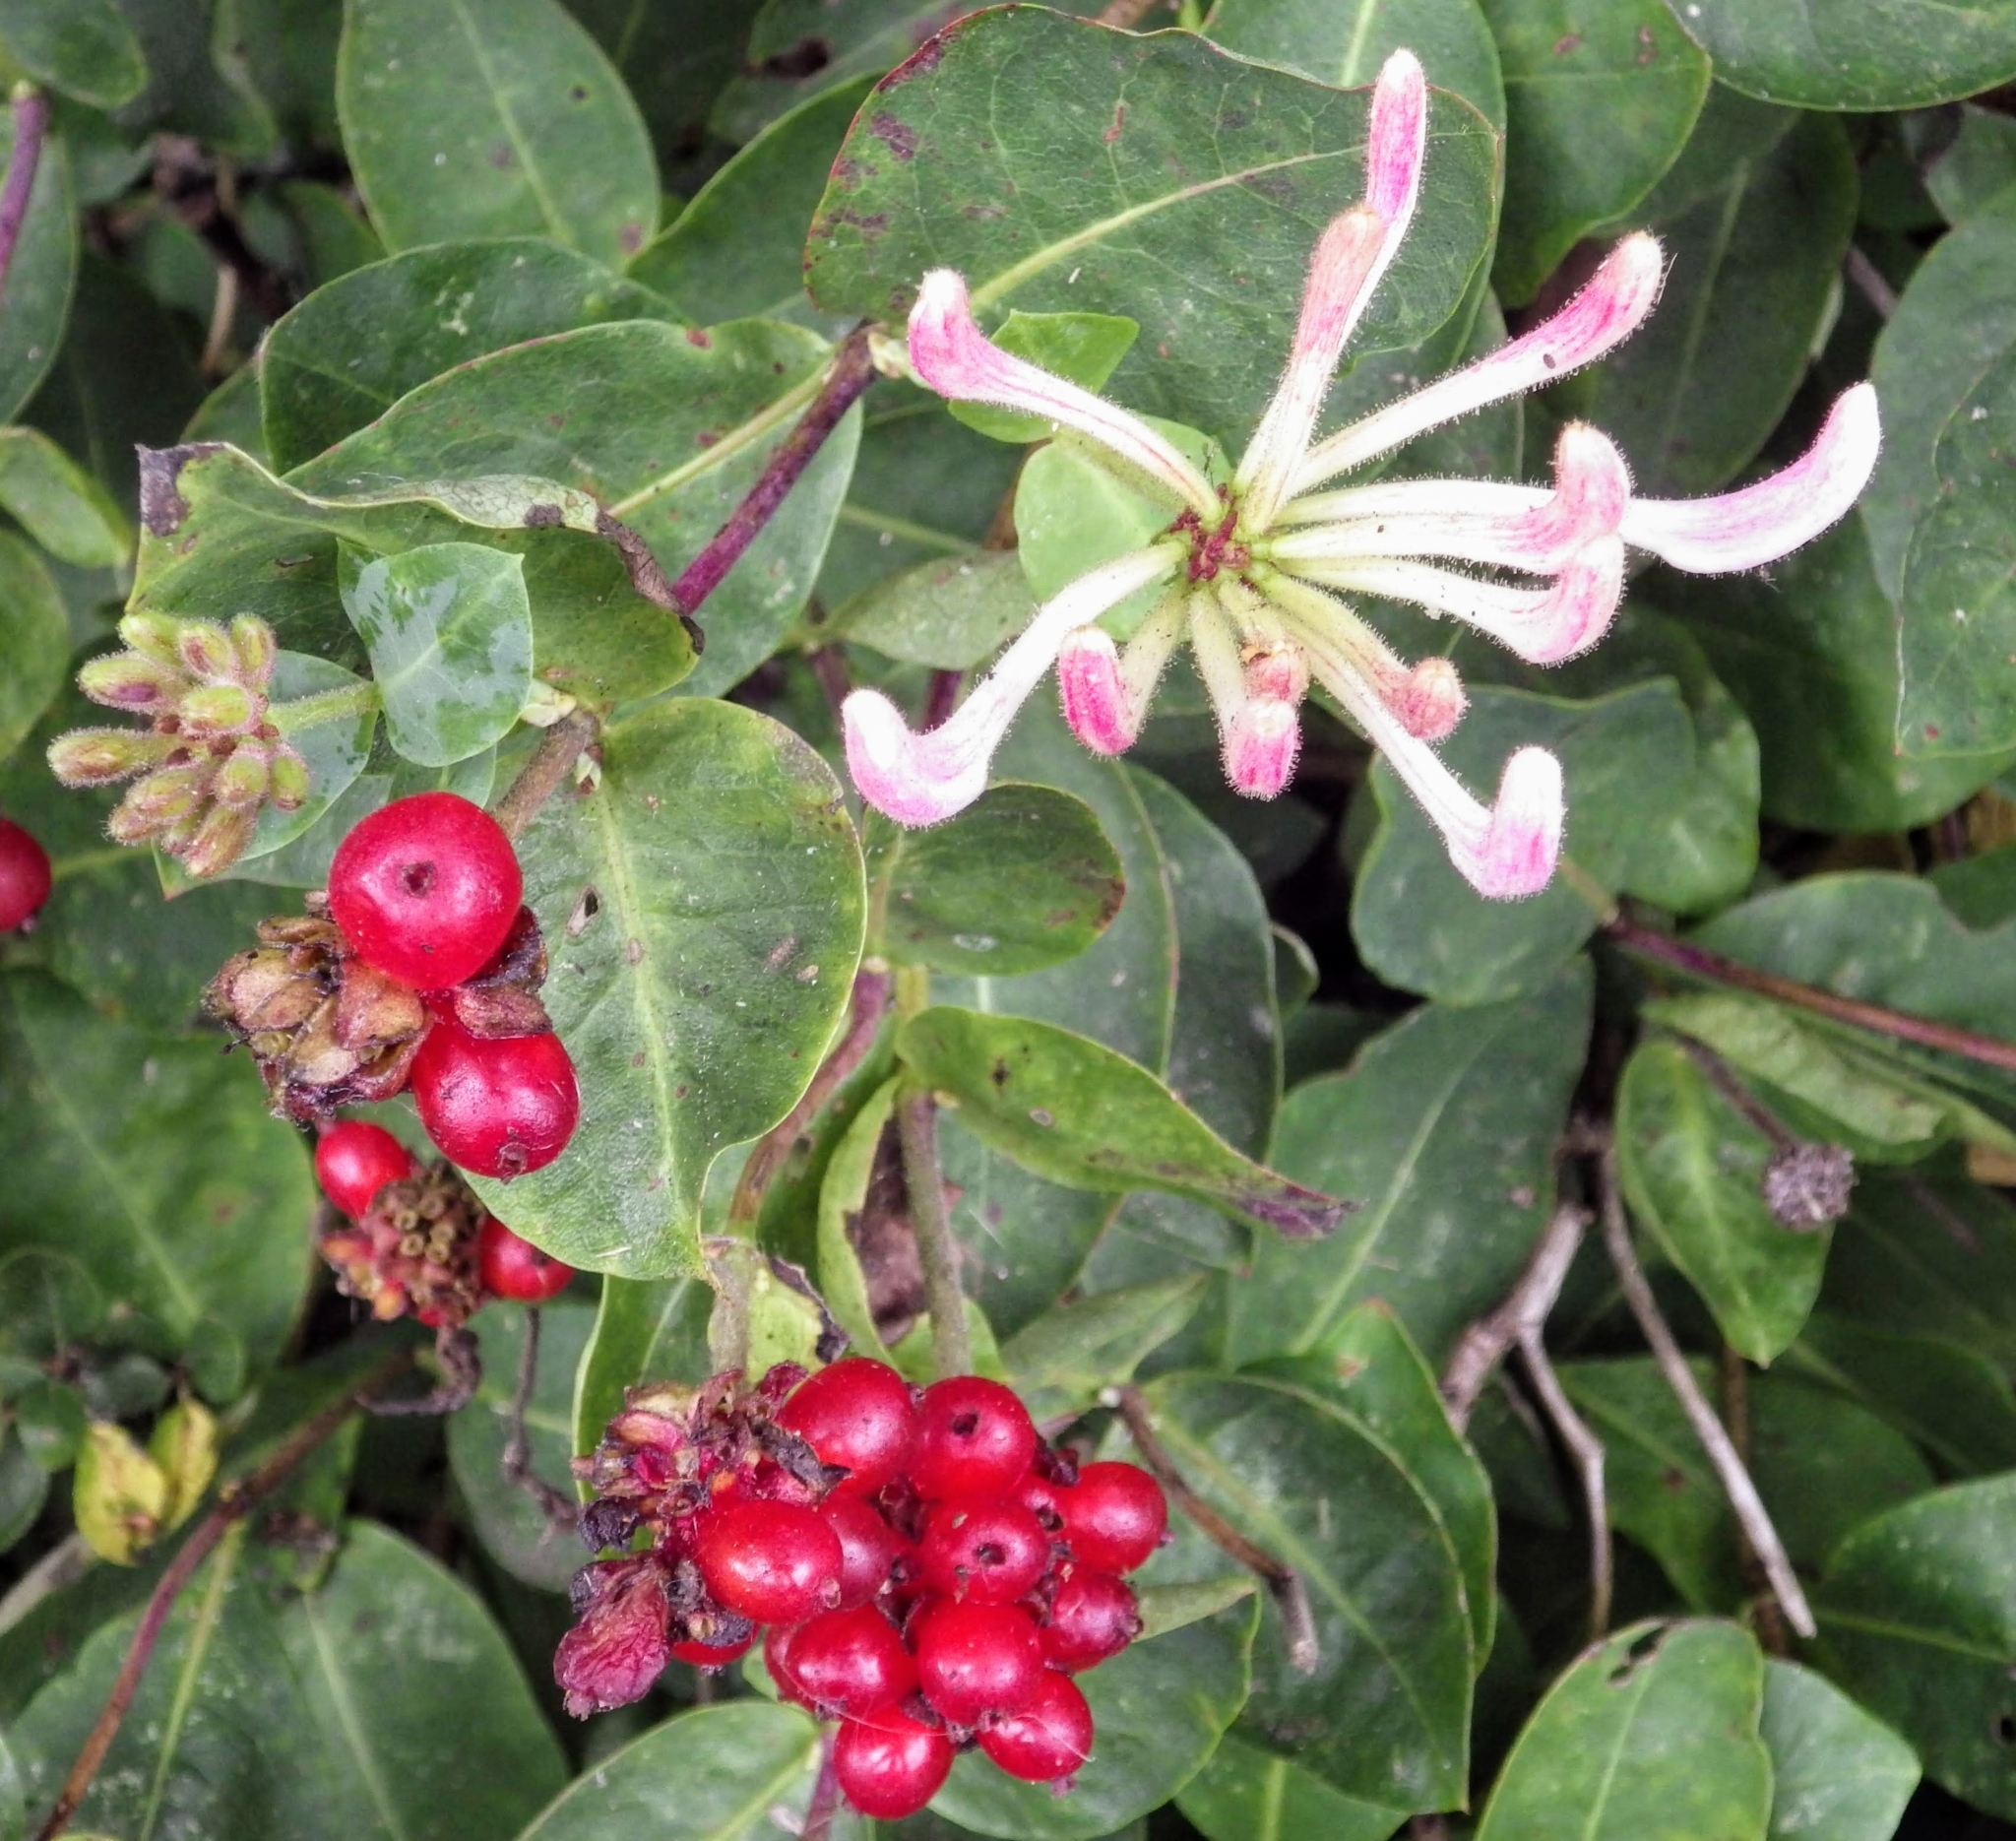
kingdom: Plantae
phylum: Tracheophyta
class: Magnoliopsida
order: Dipsacales
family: Caprifoliaceae
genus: Lonicera
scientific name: Lonicera periclymenum
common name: European honeysuckle
